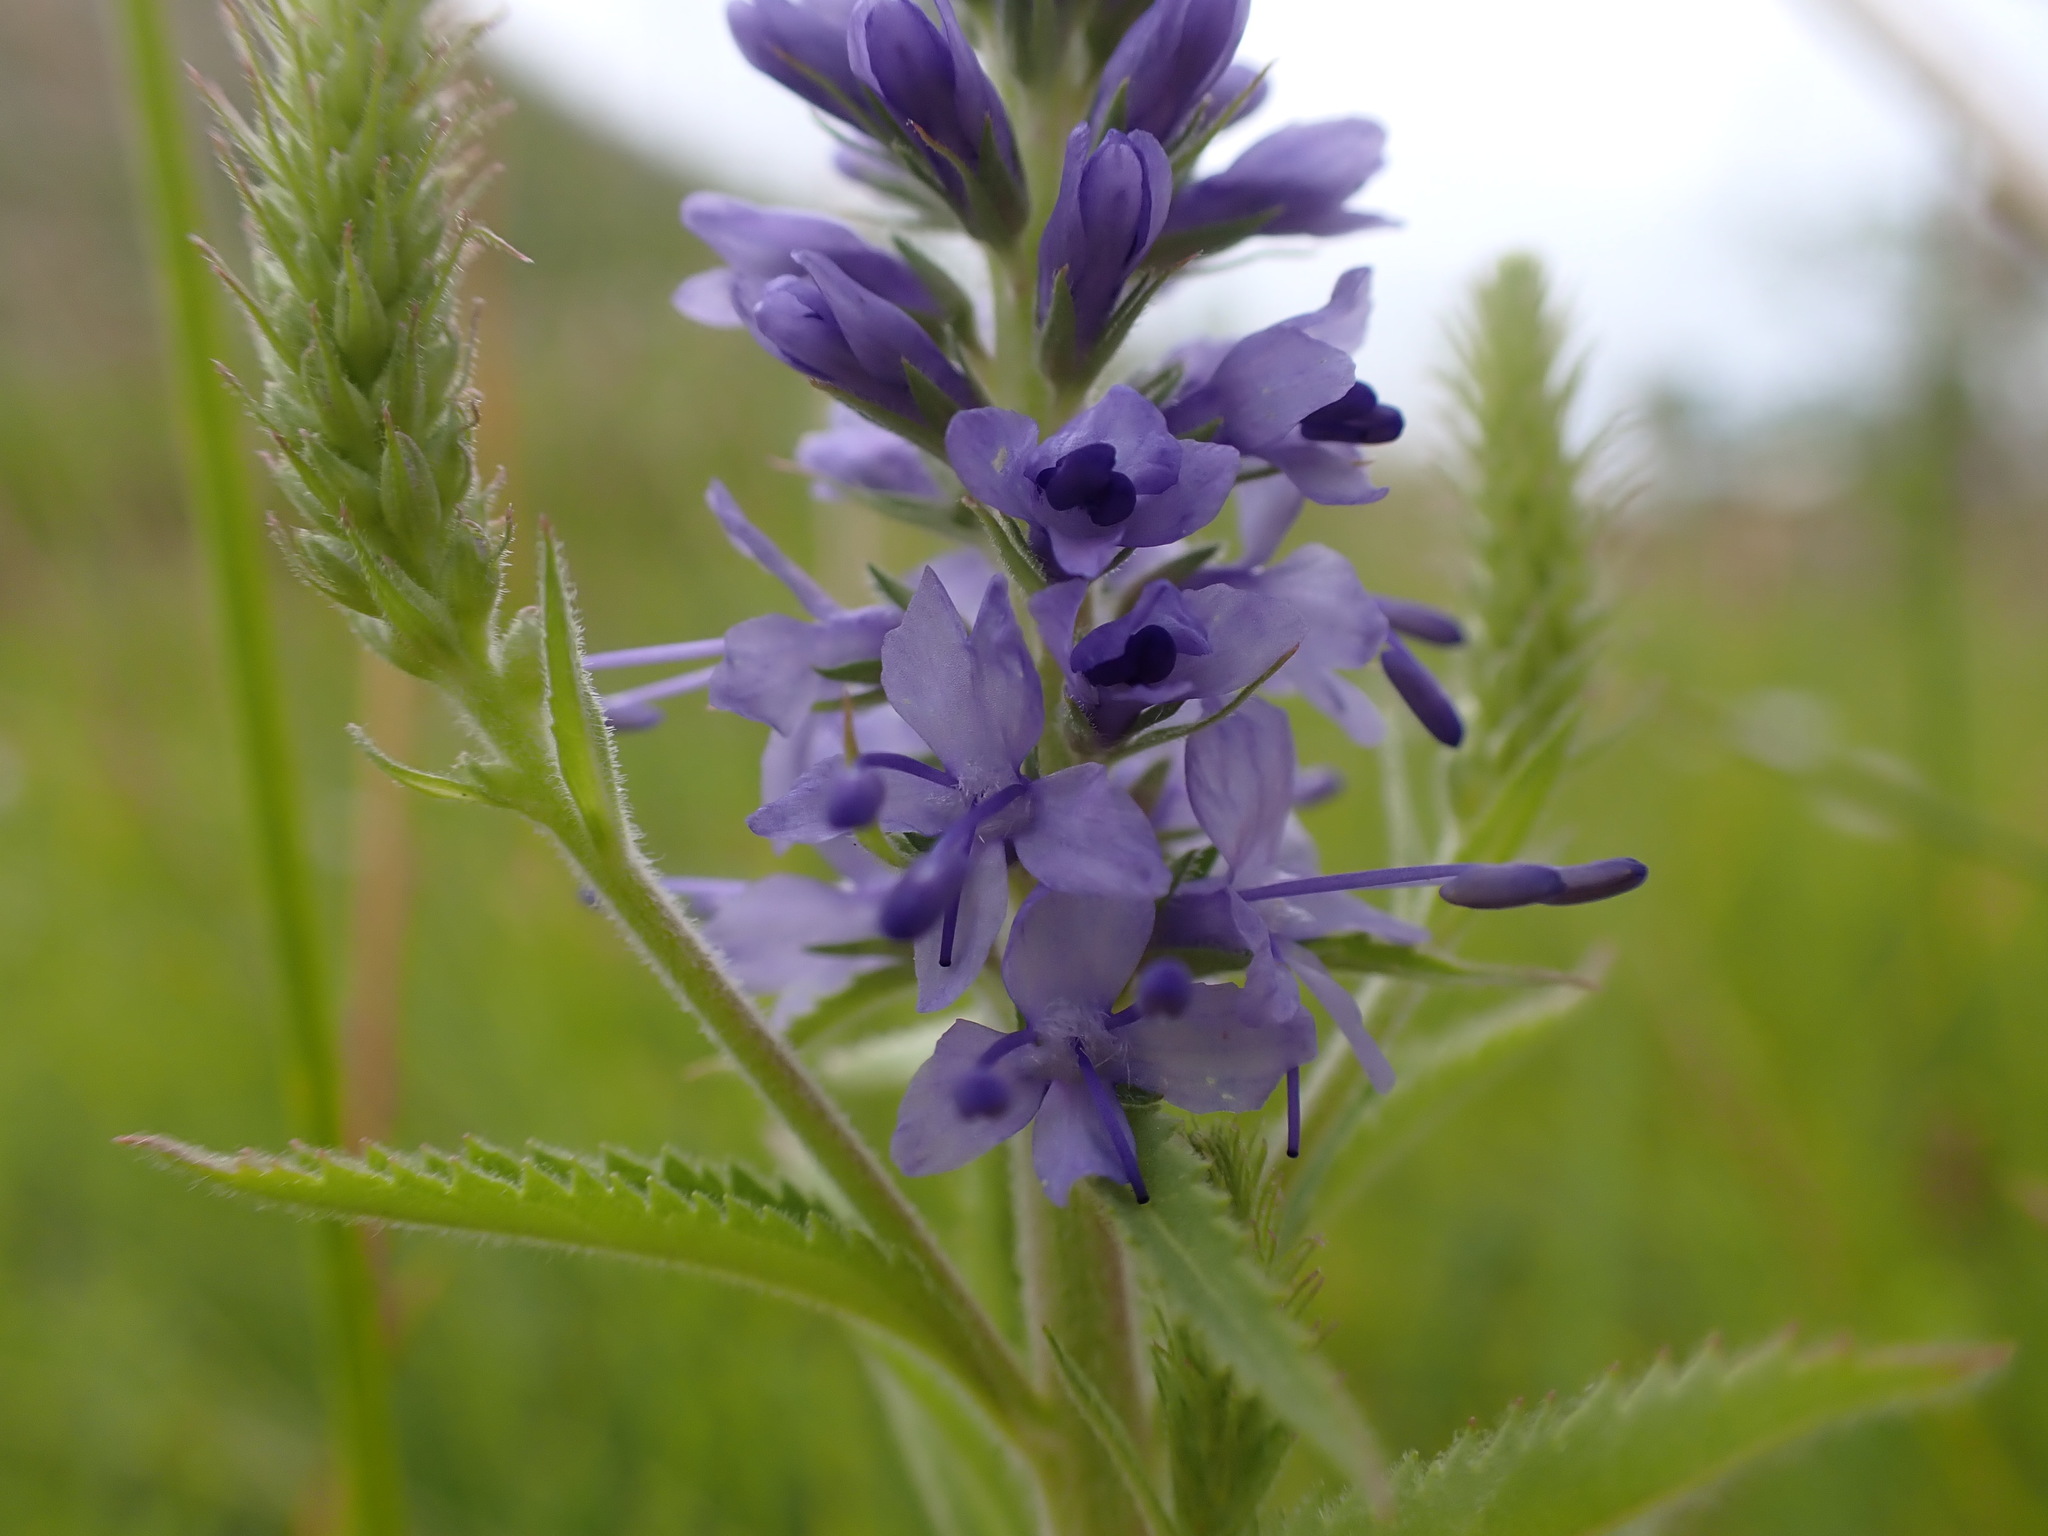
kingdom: Plantae
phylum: Tracheophyta
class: Magnoliopsida
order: Lamiales
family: Plantaginaceae
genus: Veronica
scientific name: Veronica spicata
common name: Spiked speedwell
